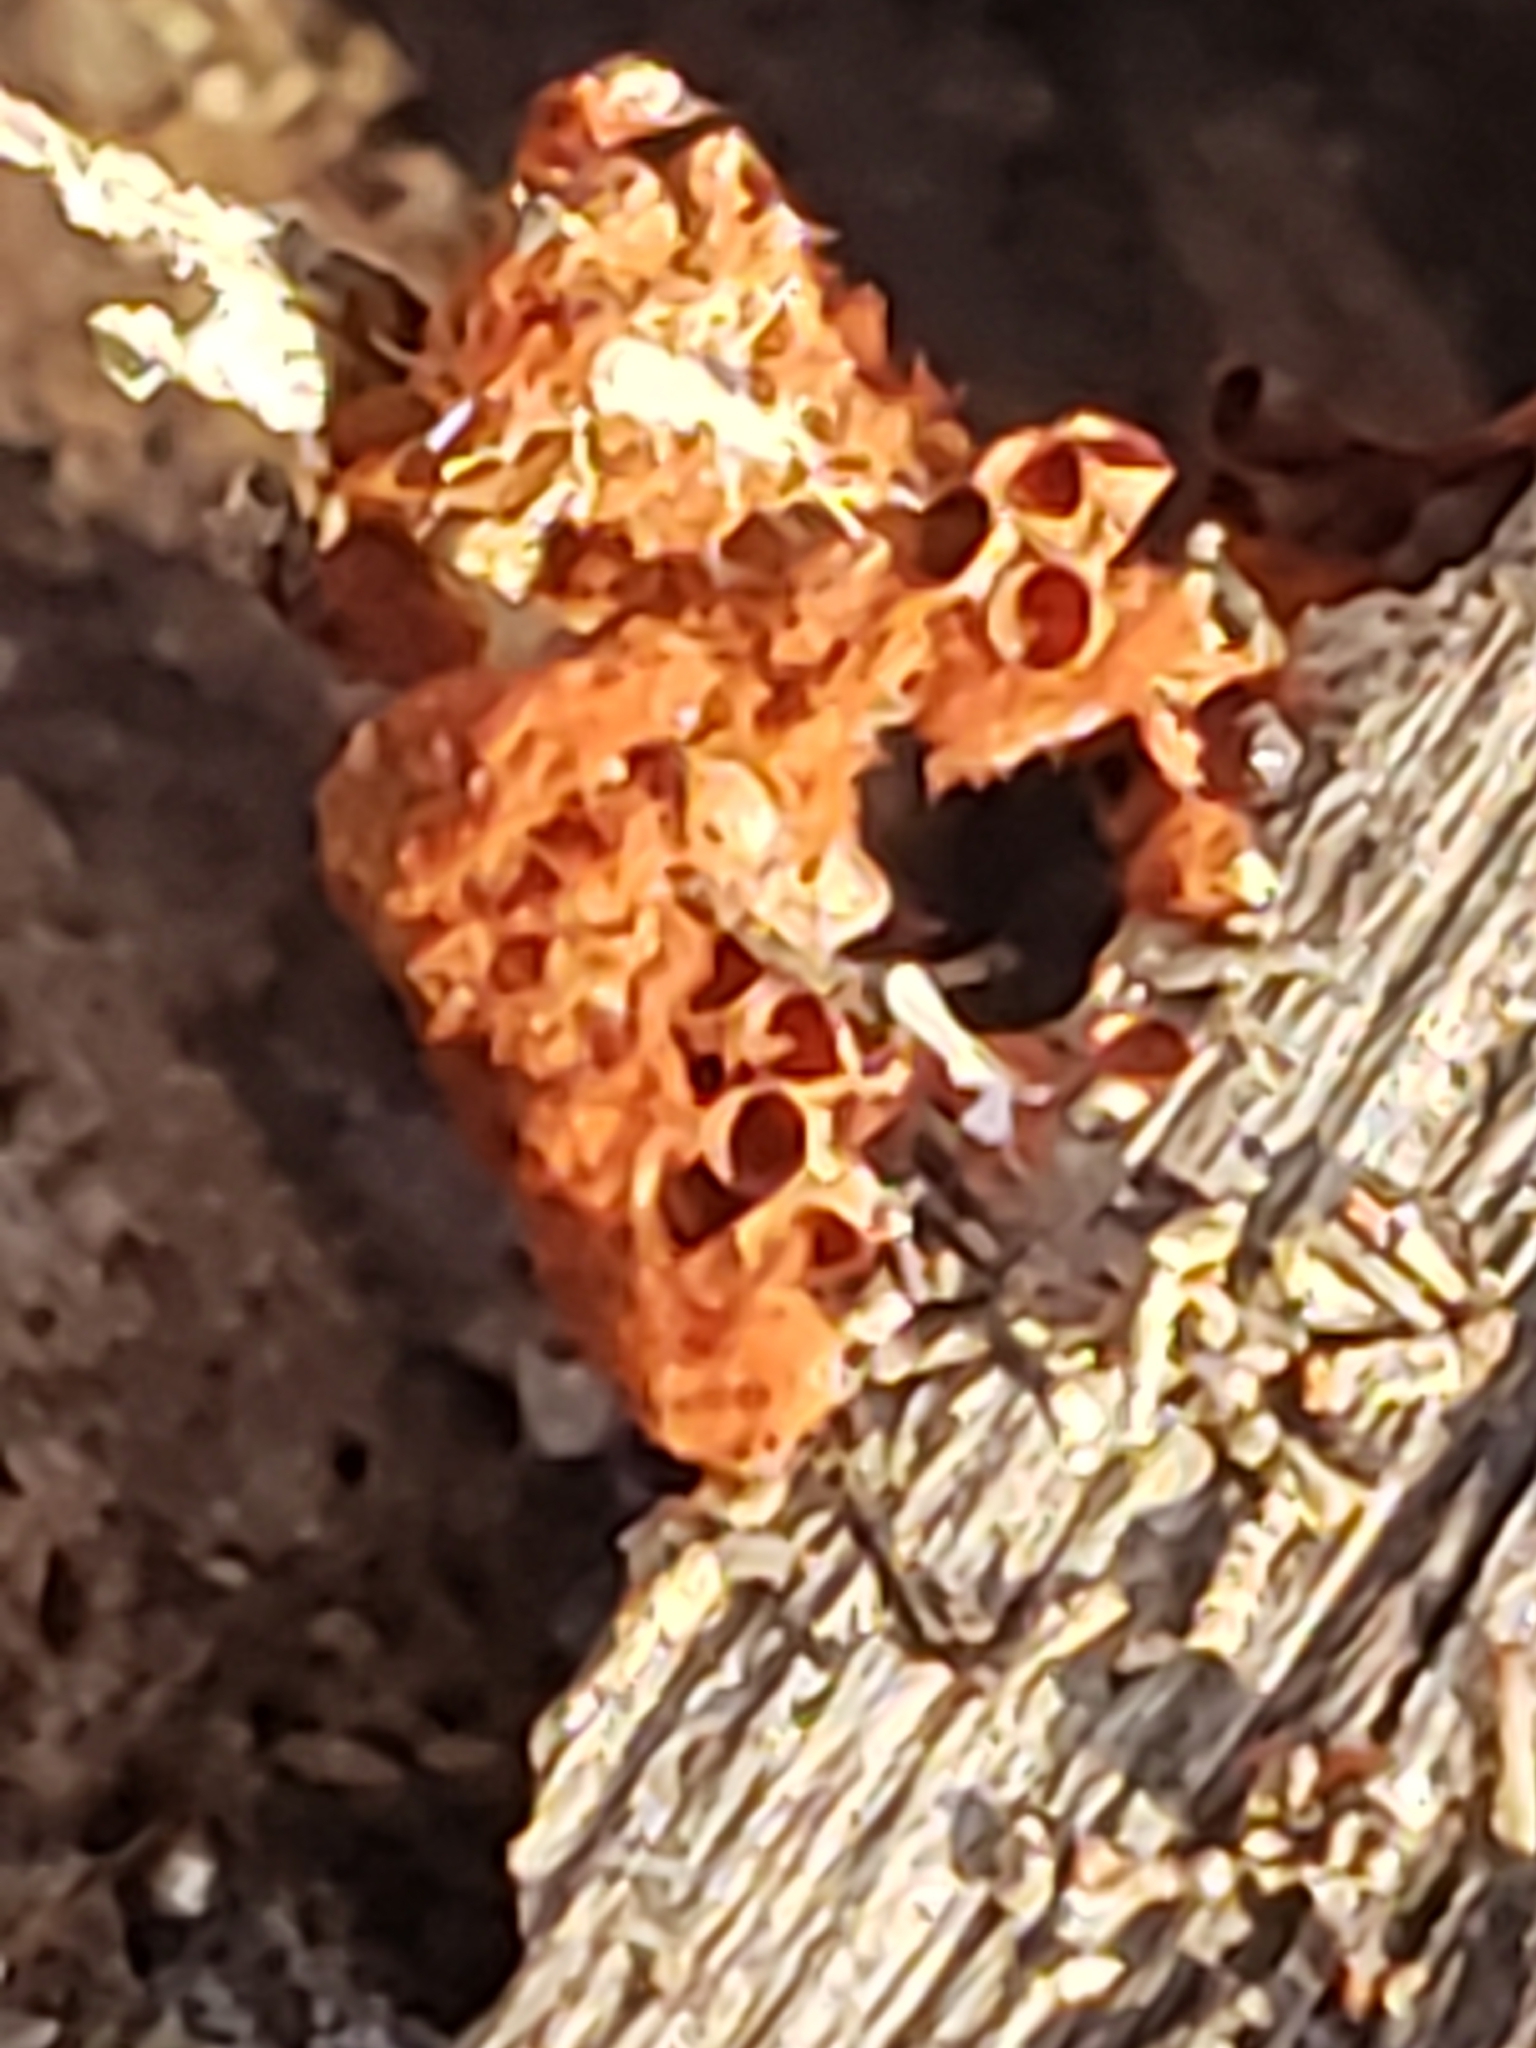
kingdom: Protozoa
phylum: Mycetozoa
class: Myxomycetes
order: Trichiales
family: Trichiaceae
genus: Metatrichia
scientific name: Metatrichia vesparia
